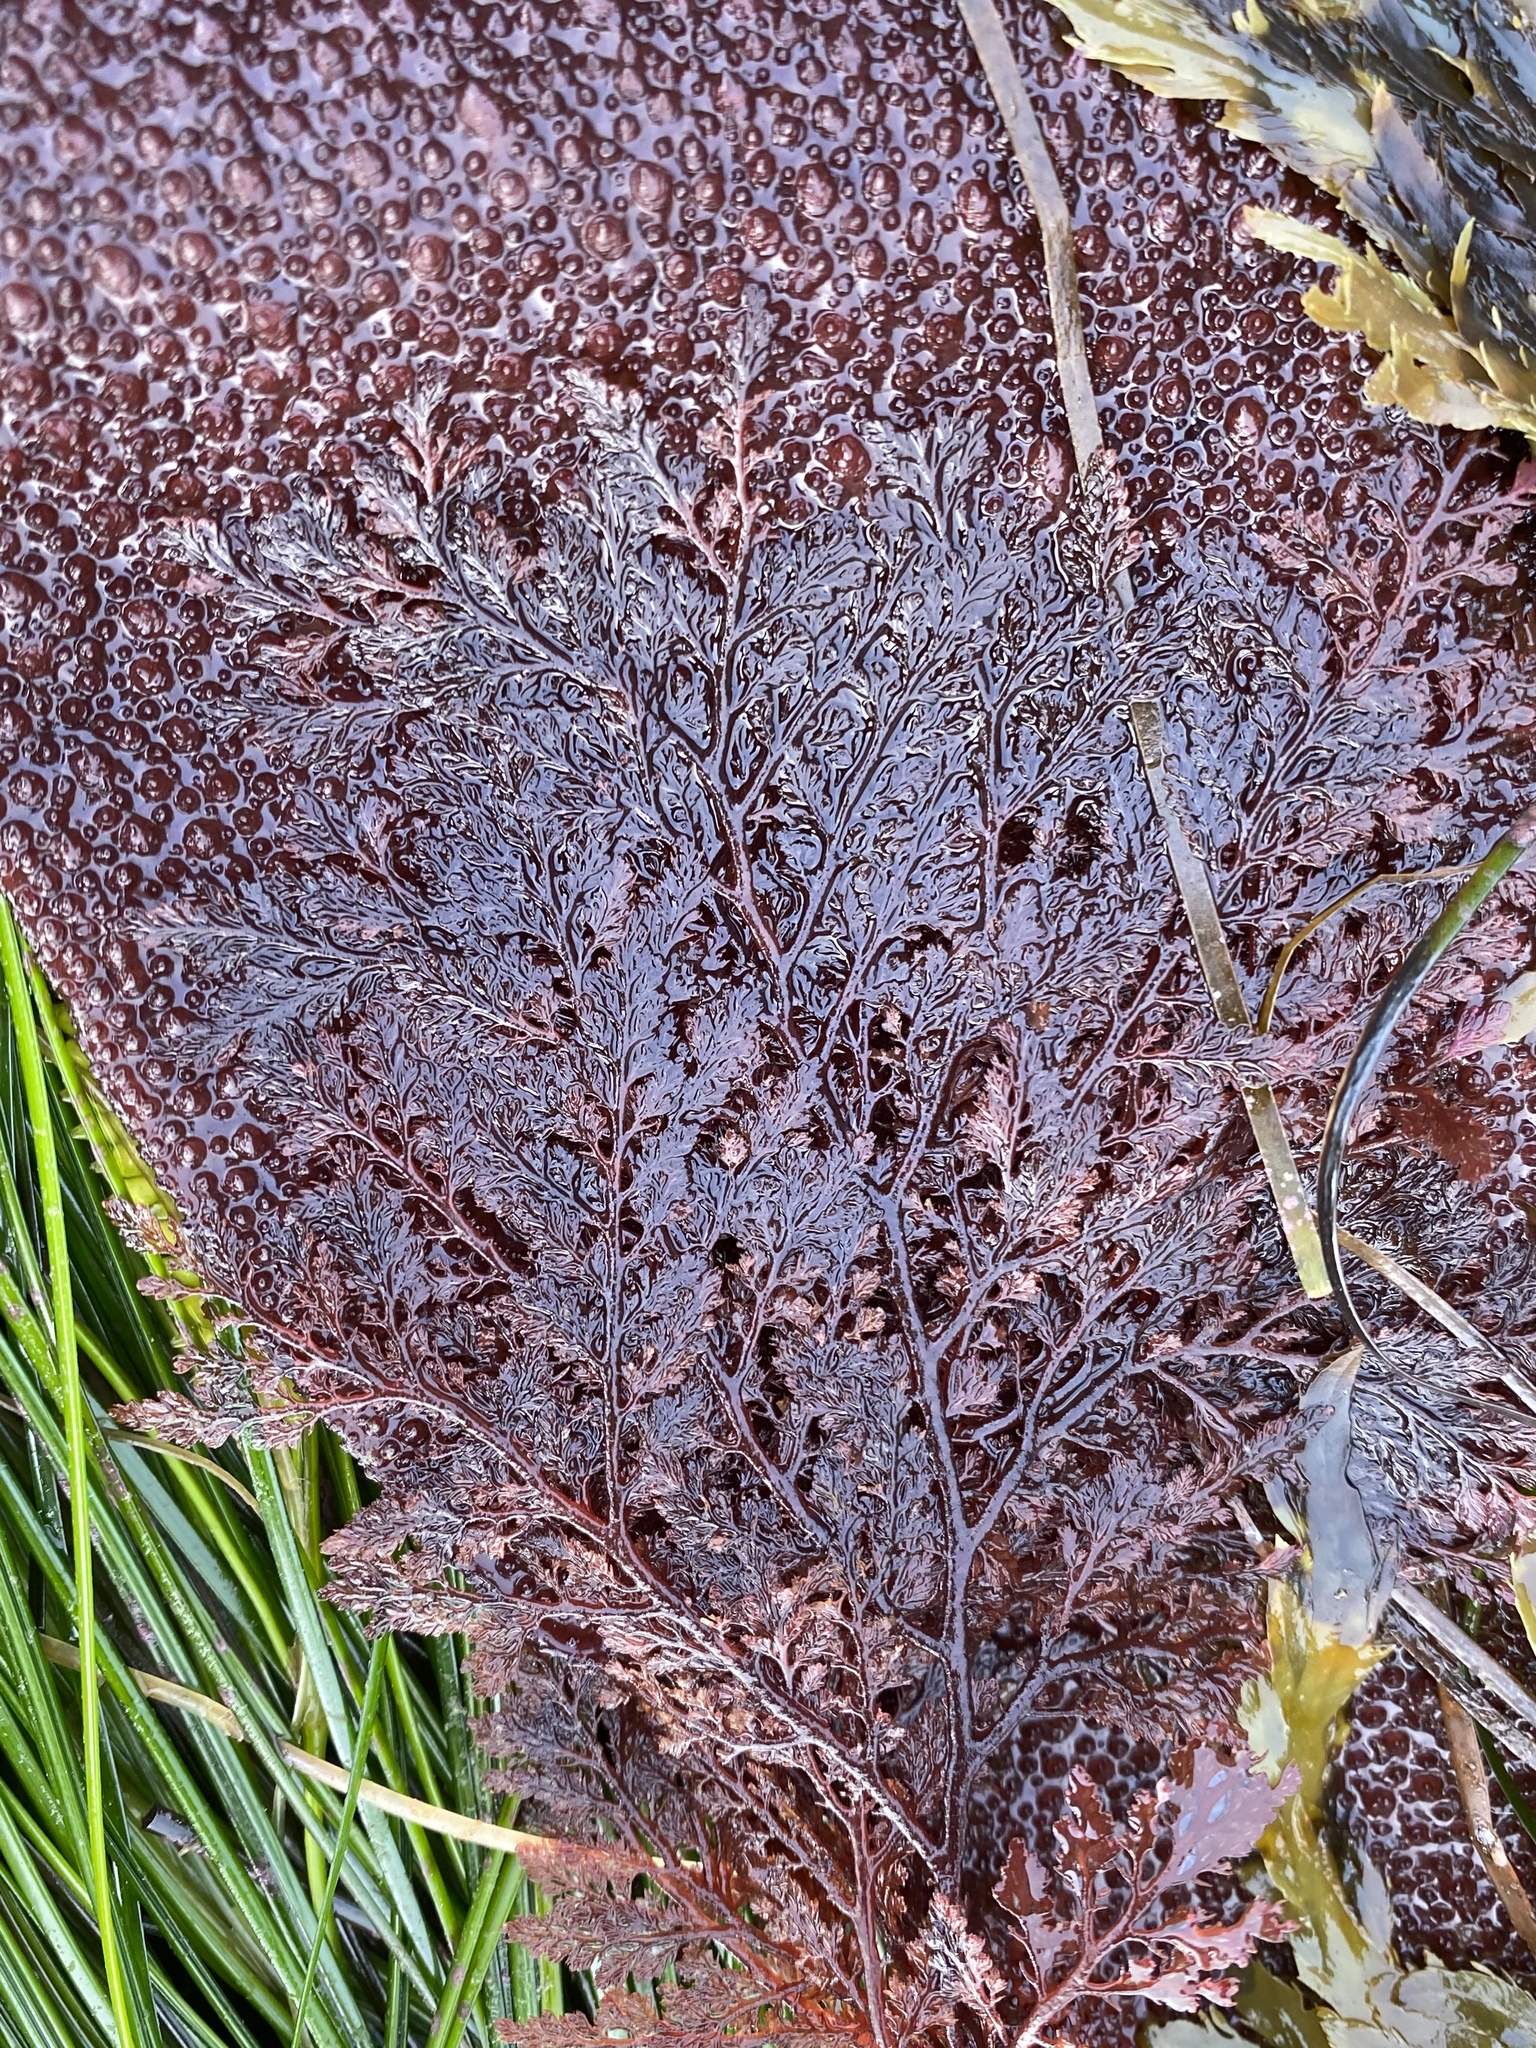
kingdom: Plantae
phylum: Rhodophyta
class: Florideophyceae
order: Ceramiales
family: Ceramiaceae
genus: Microcladia
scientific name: Microcladia coulteri
